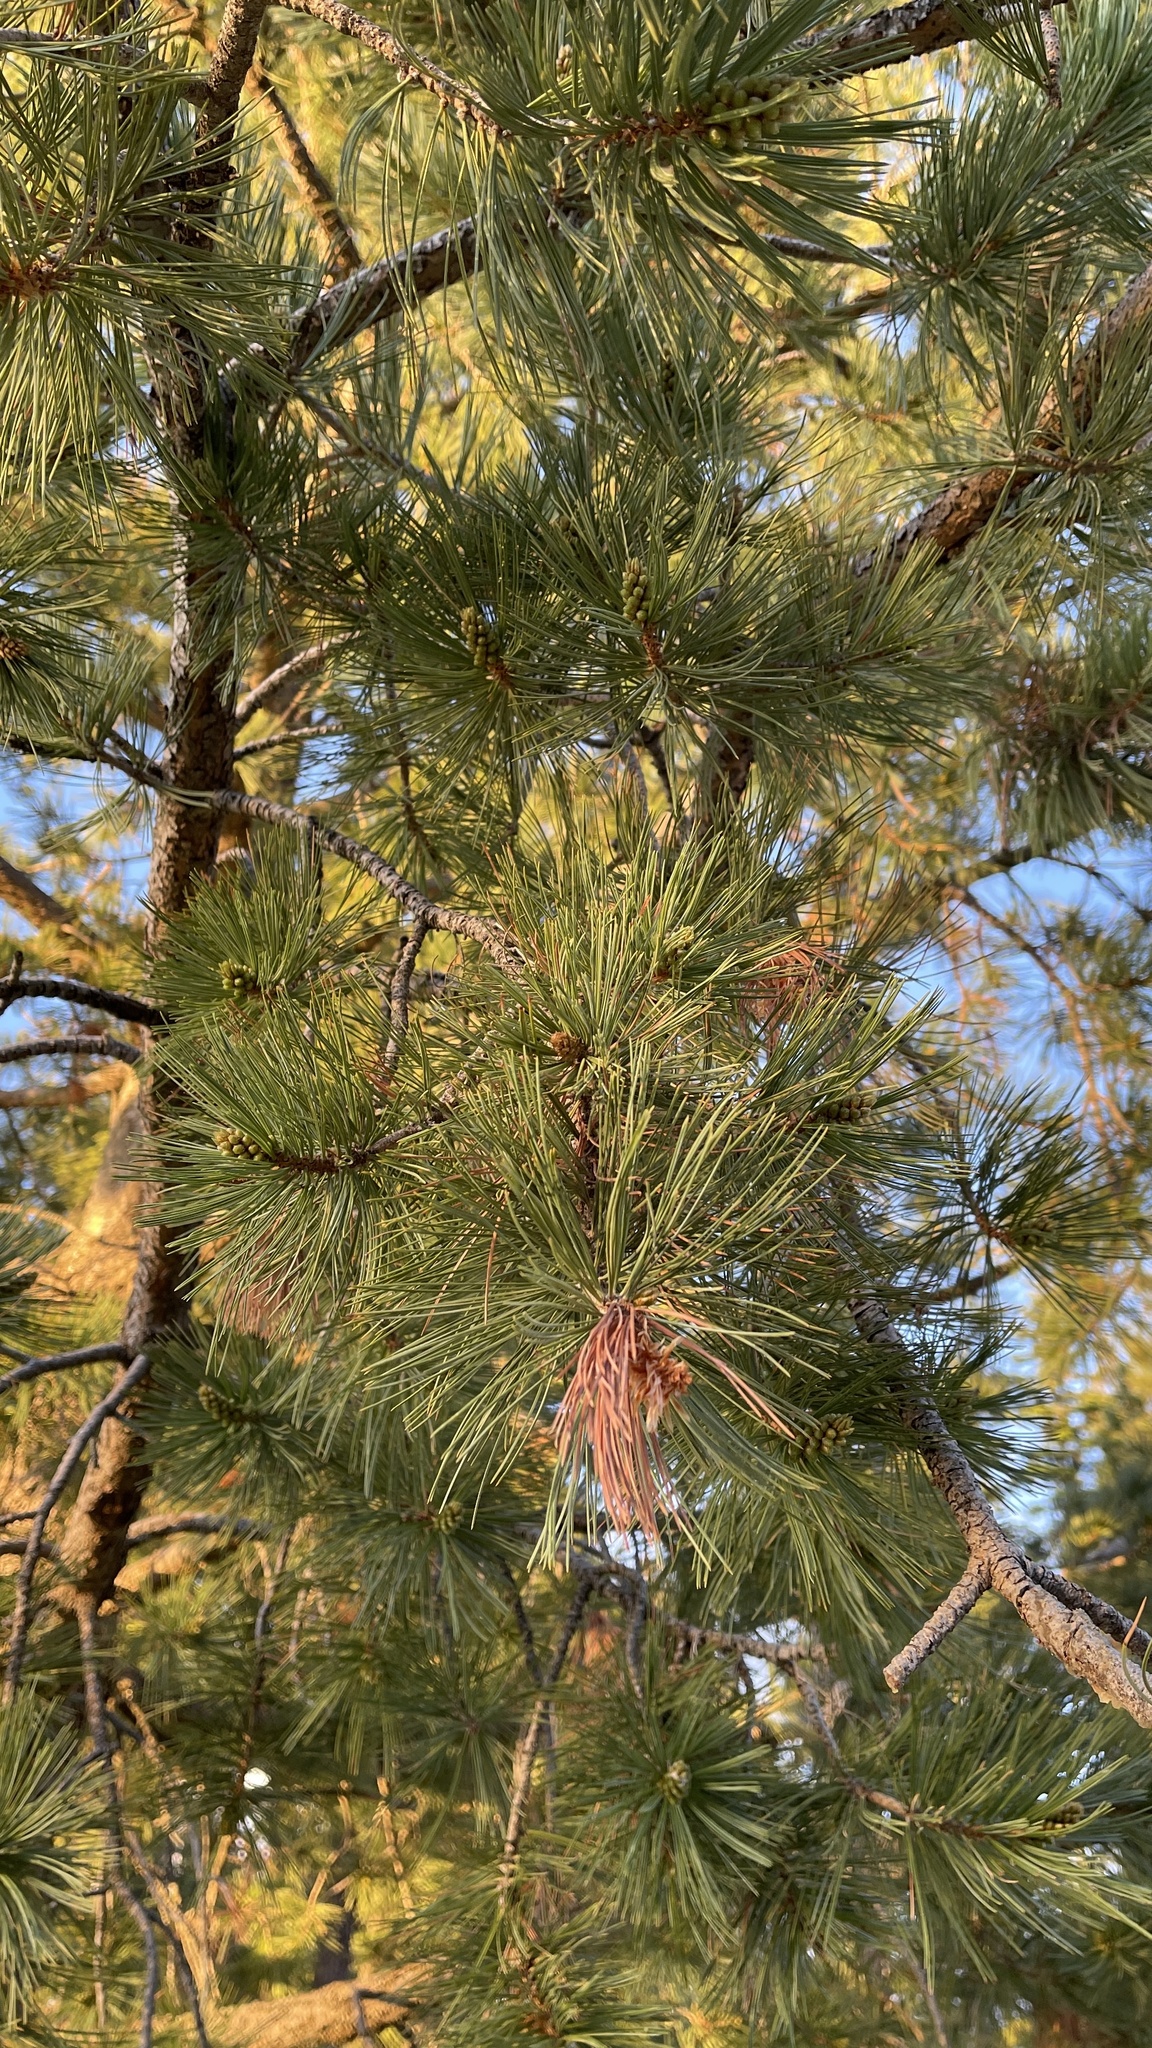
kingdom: Plantae
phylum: Tracheophyta
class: Pinopsida
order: Pinales
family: Pinaceae
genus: Pinus
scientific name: Pinus strobiformis
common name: Southwestern white pine
